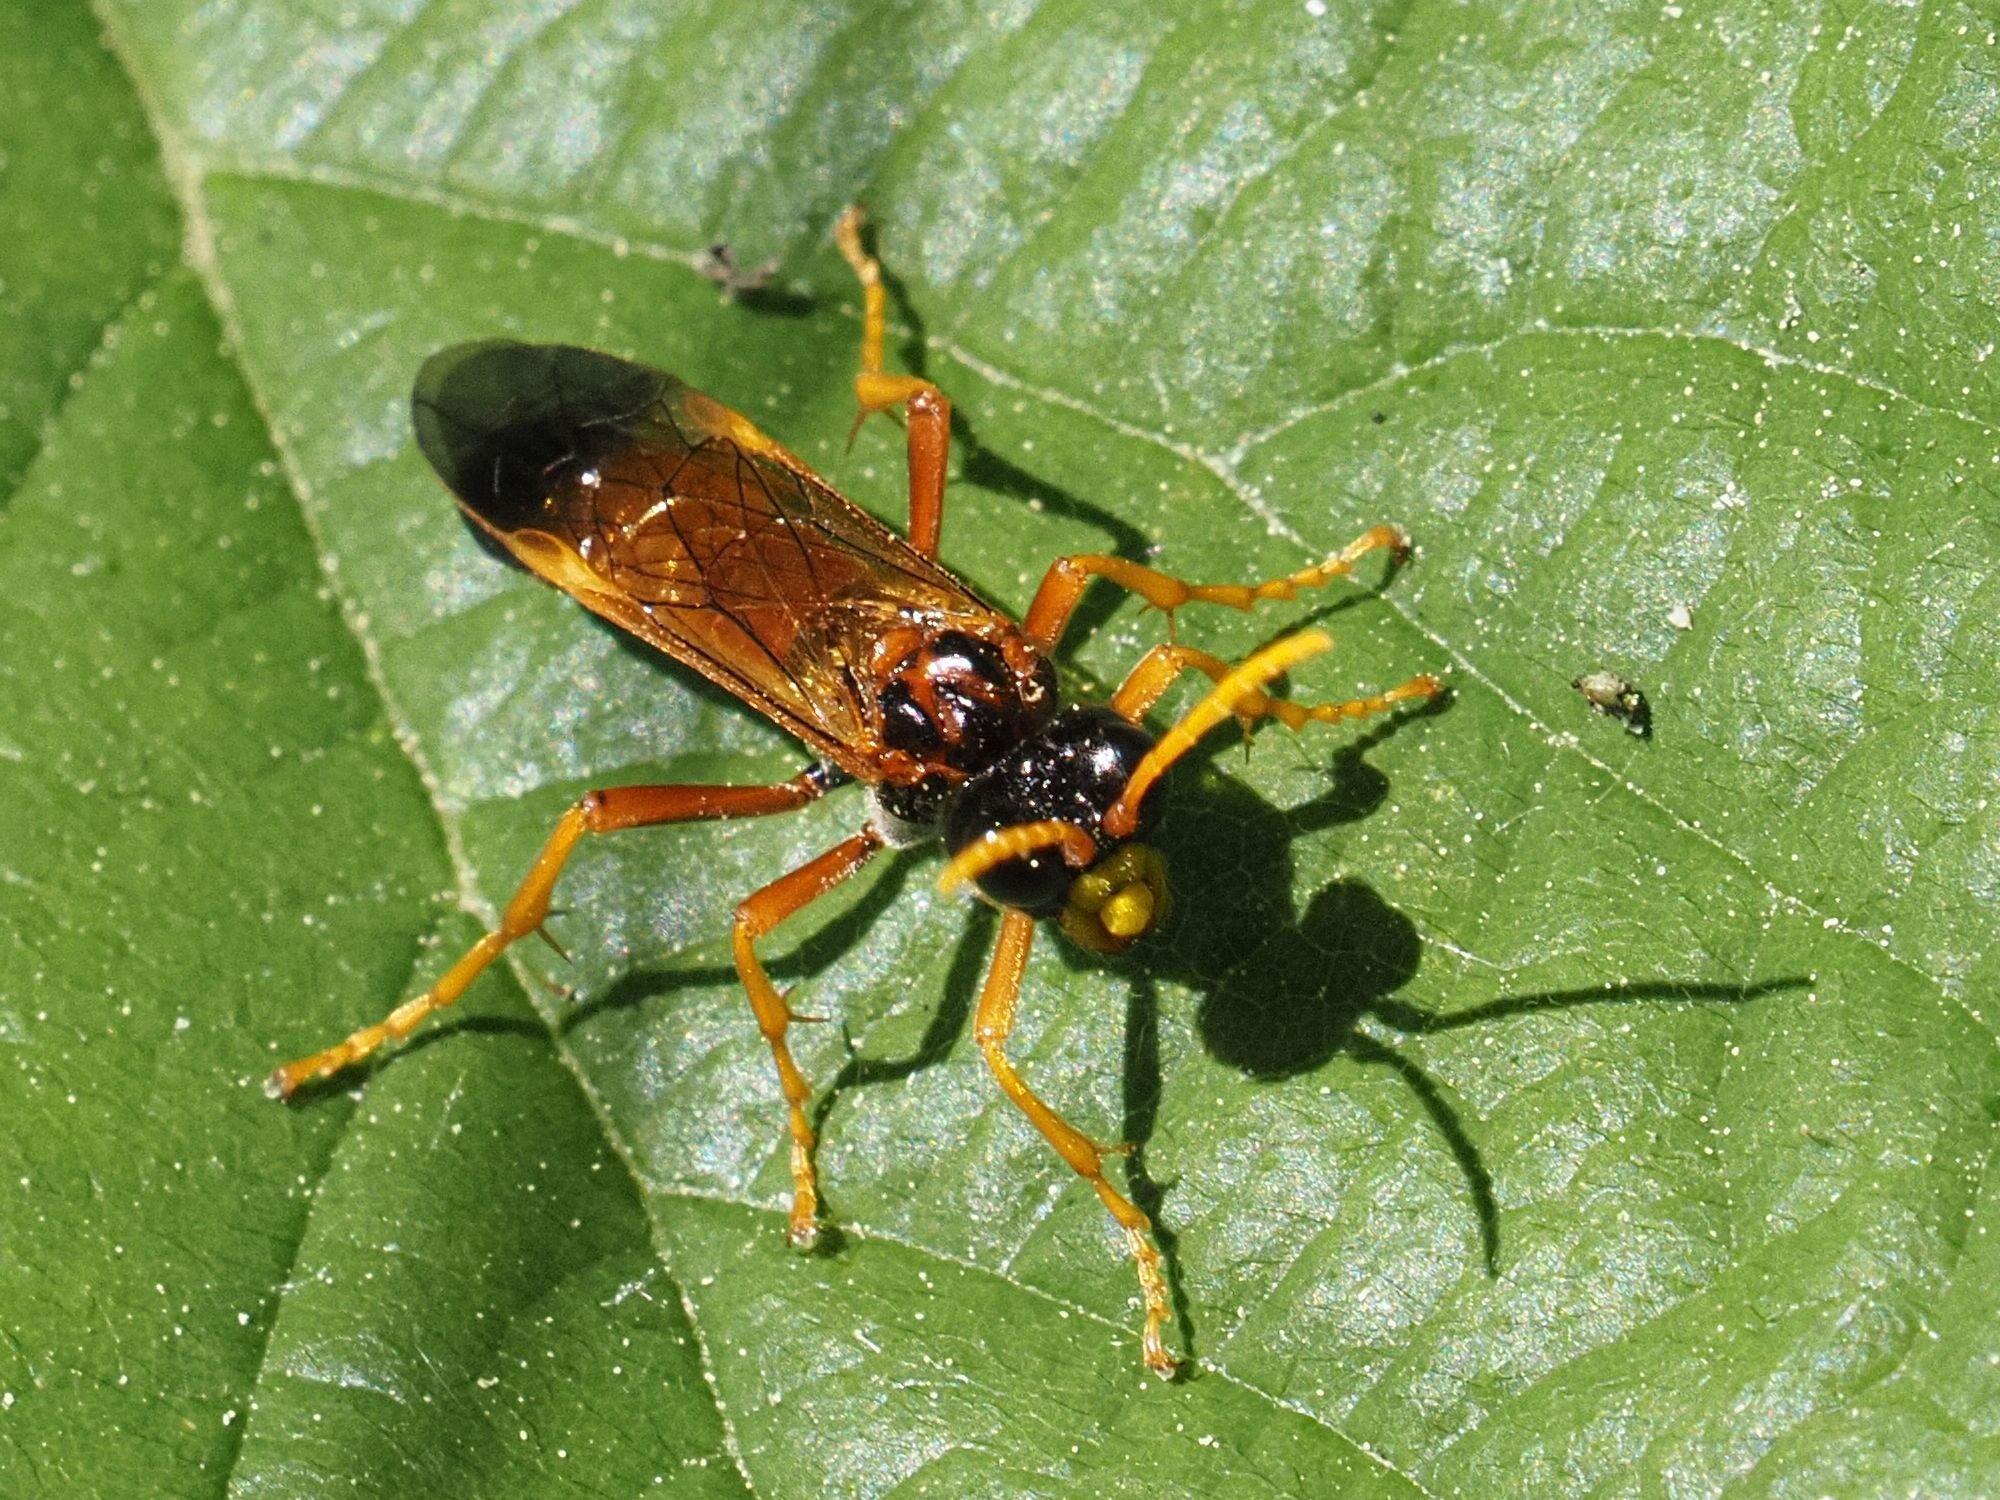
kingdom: Animalia
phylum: Arthropoda
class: Insecta
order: Hymenoptera
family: Tenthredinidae
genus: Tenthredo
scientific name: Tenthredo campestris
